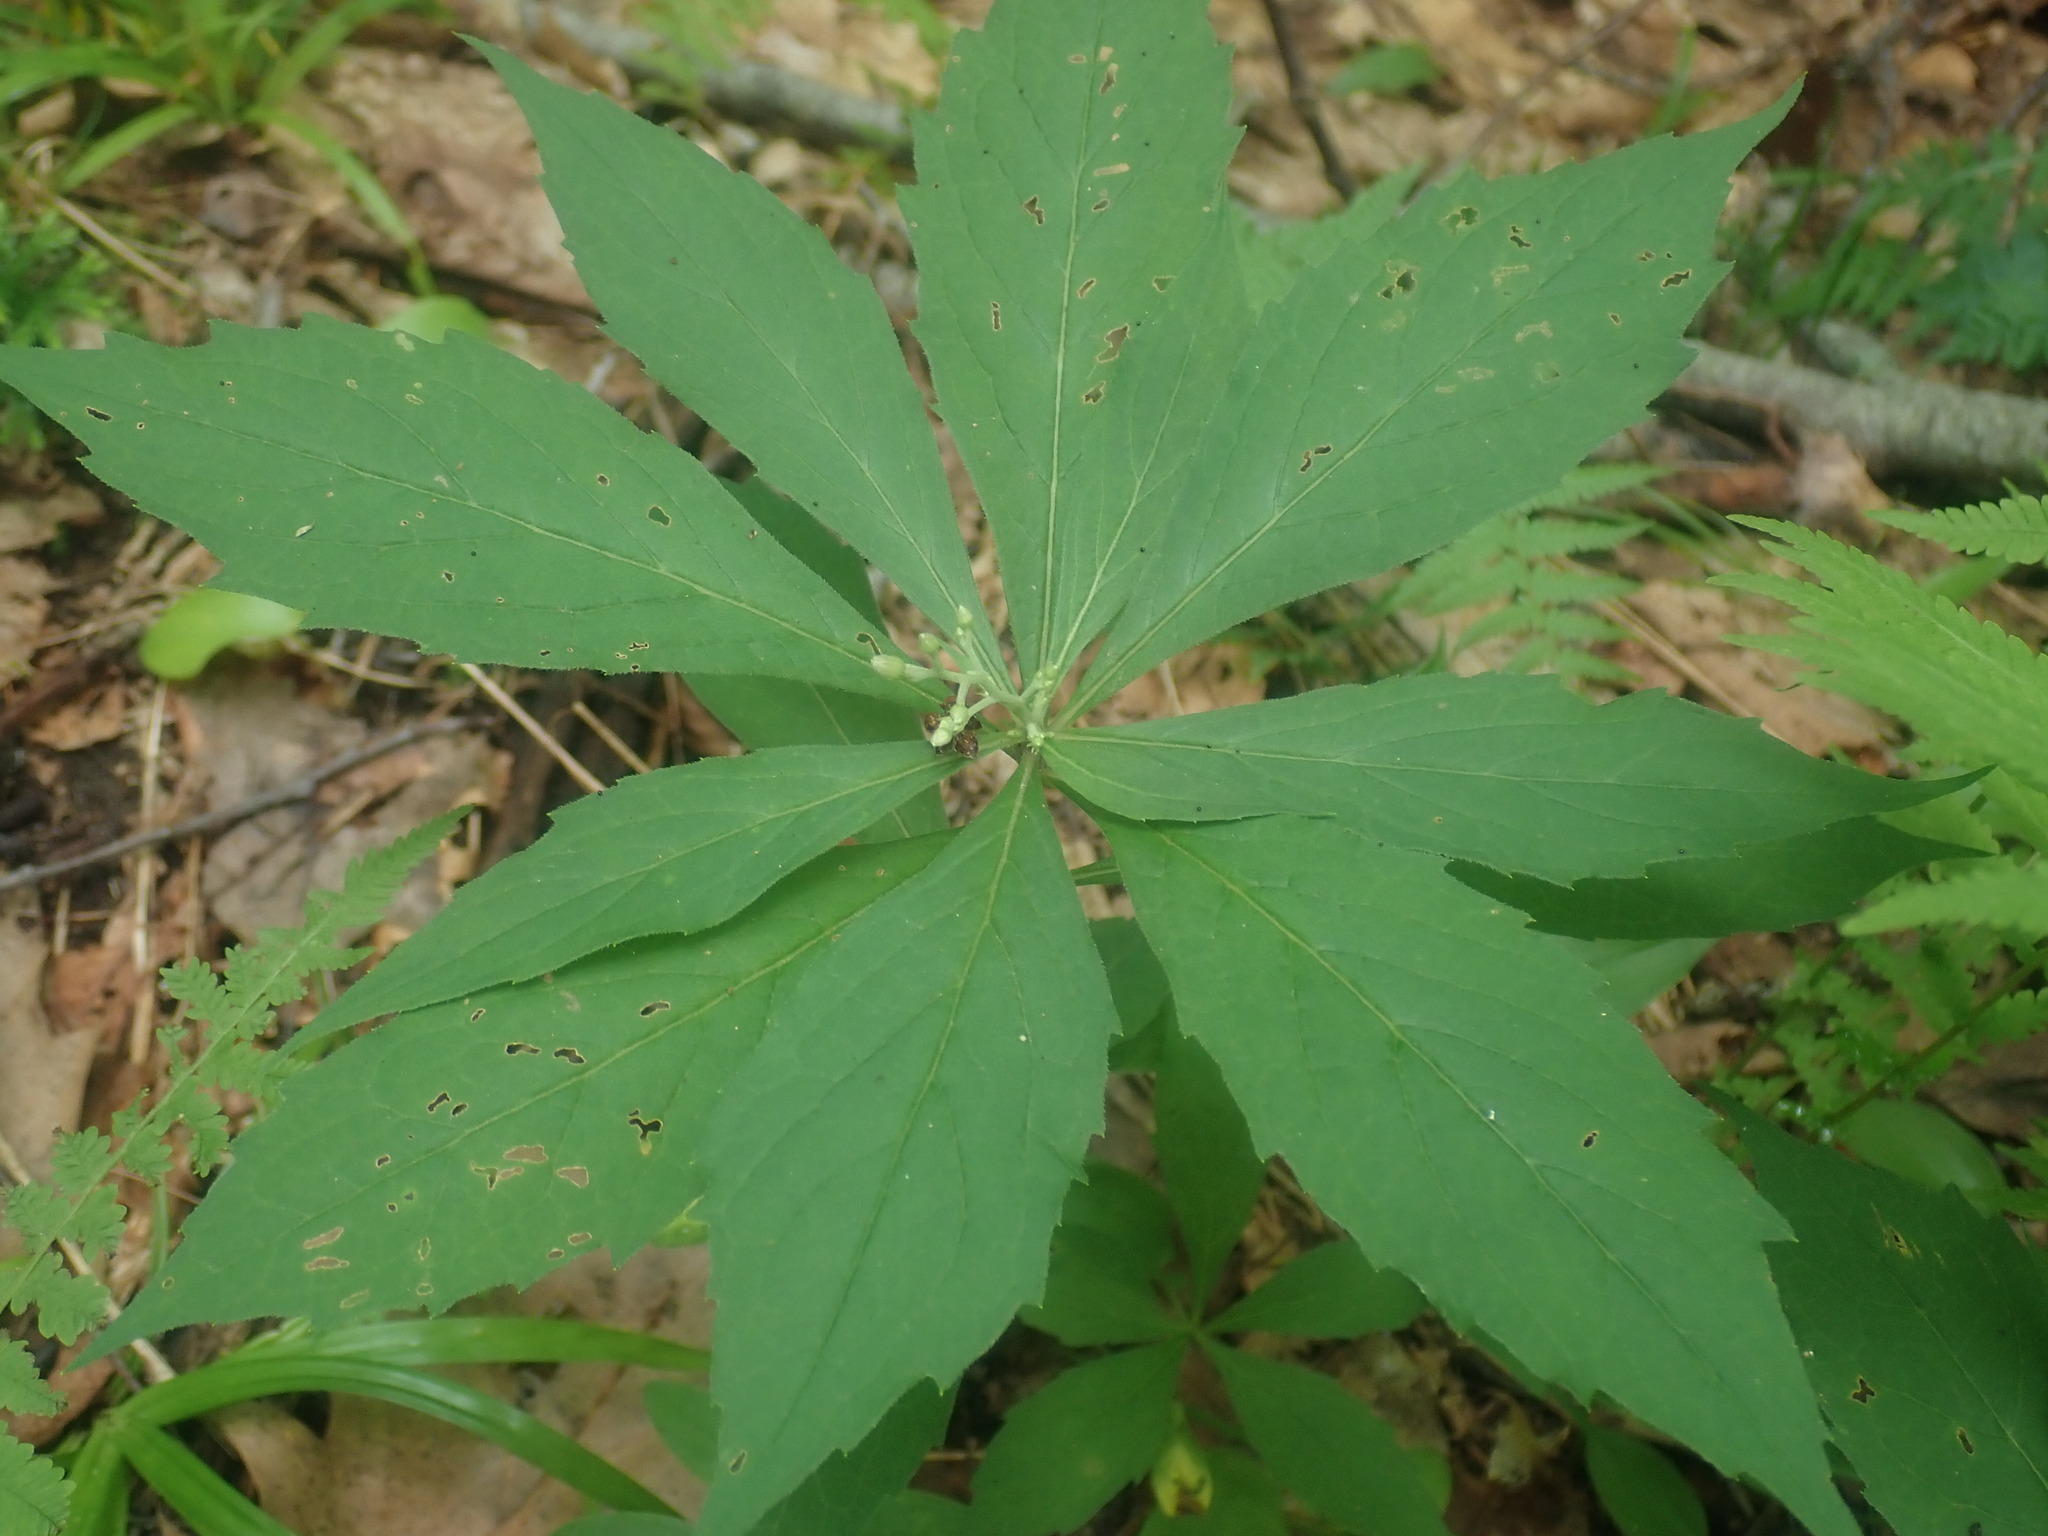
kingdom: Plantae
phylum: Tracheophyta
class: Magnoliopsida
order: Asterales
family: Asteraceae
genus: Oclemena
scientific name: Oclemena acuminata
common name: Mountain aster
